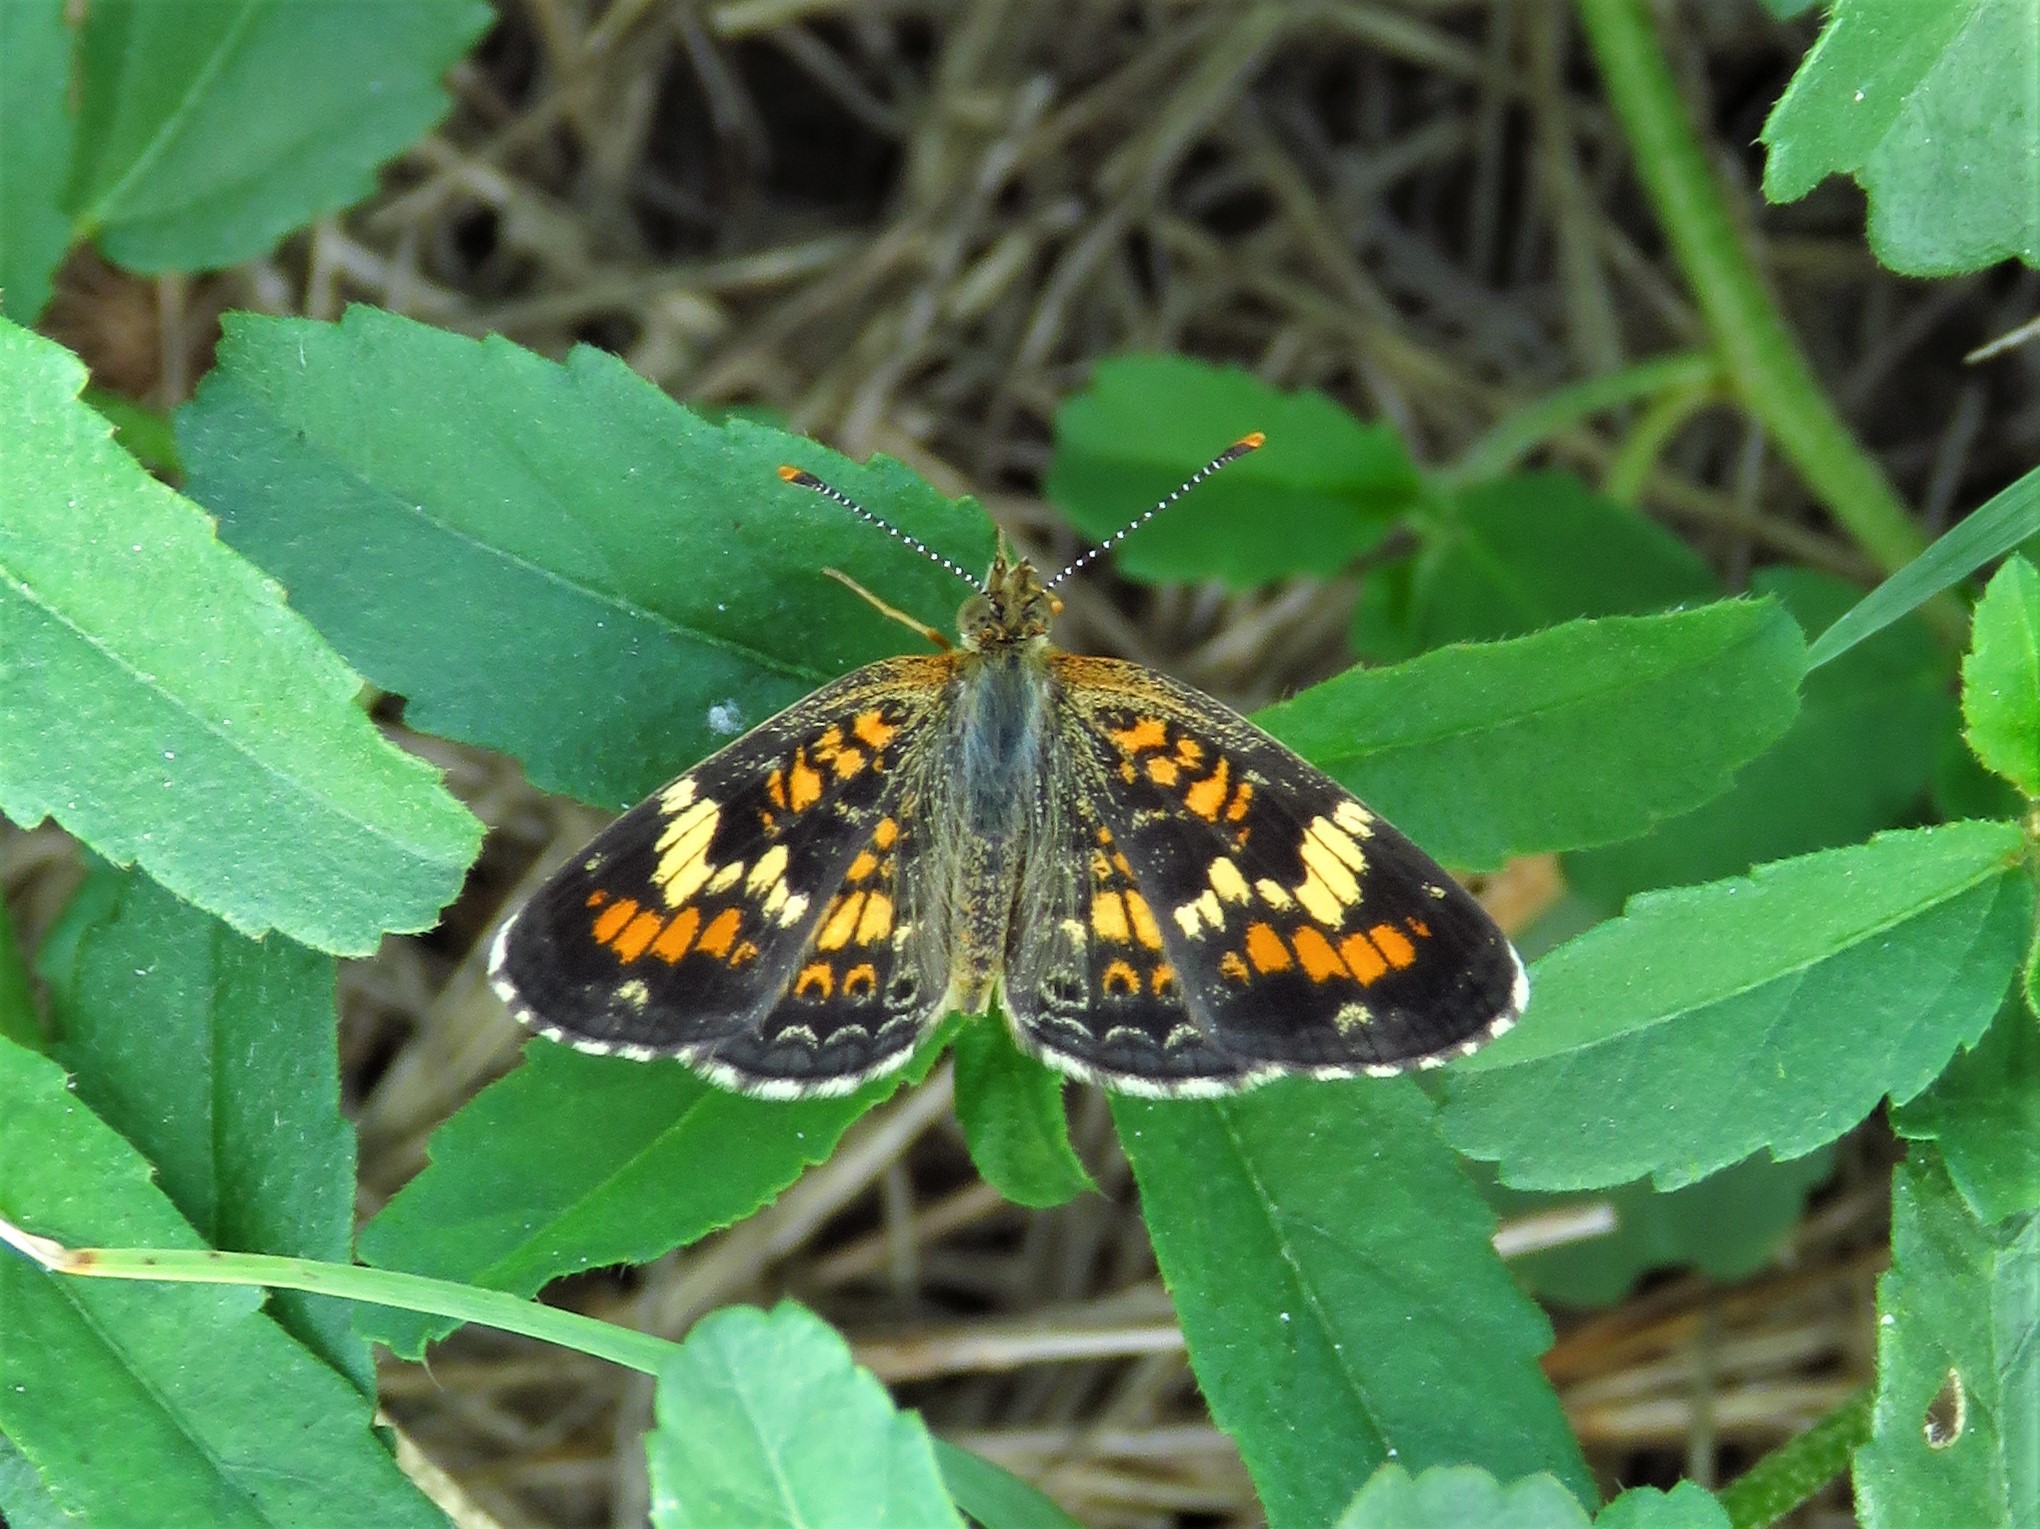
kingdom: Animalia
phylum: Arthropoda
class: Insecta
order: Lepidoptera
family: Nymphalidae
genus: Phyciodes
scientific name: Phyciodes phaon
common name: Phaon crescent
